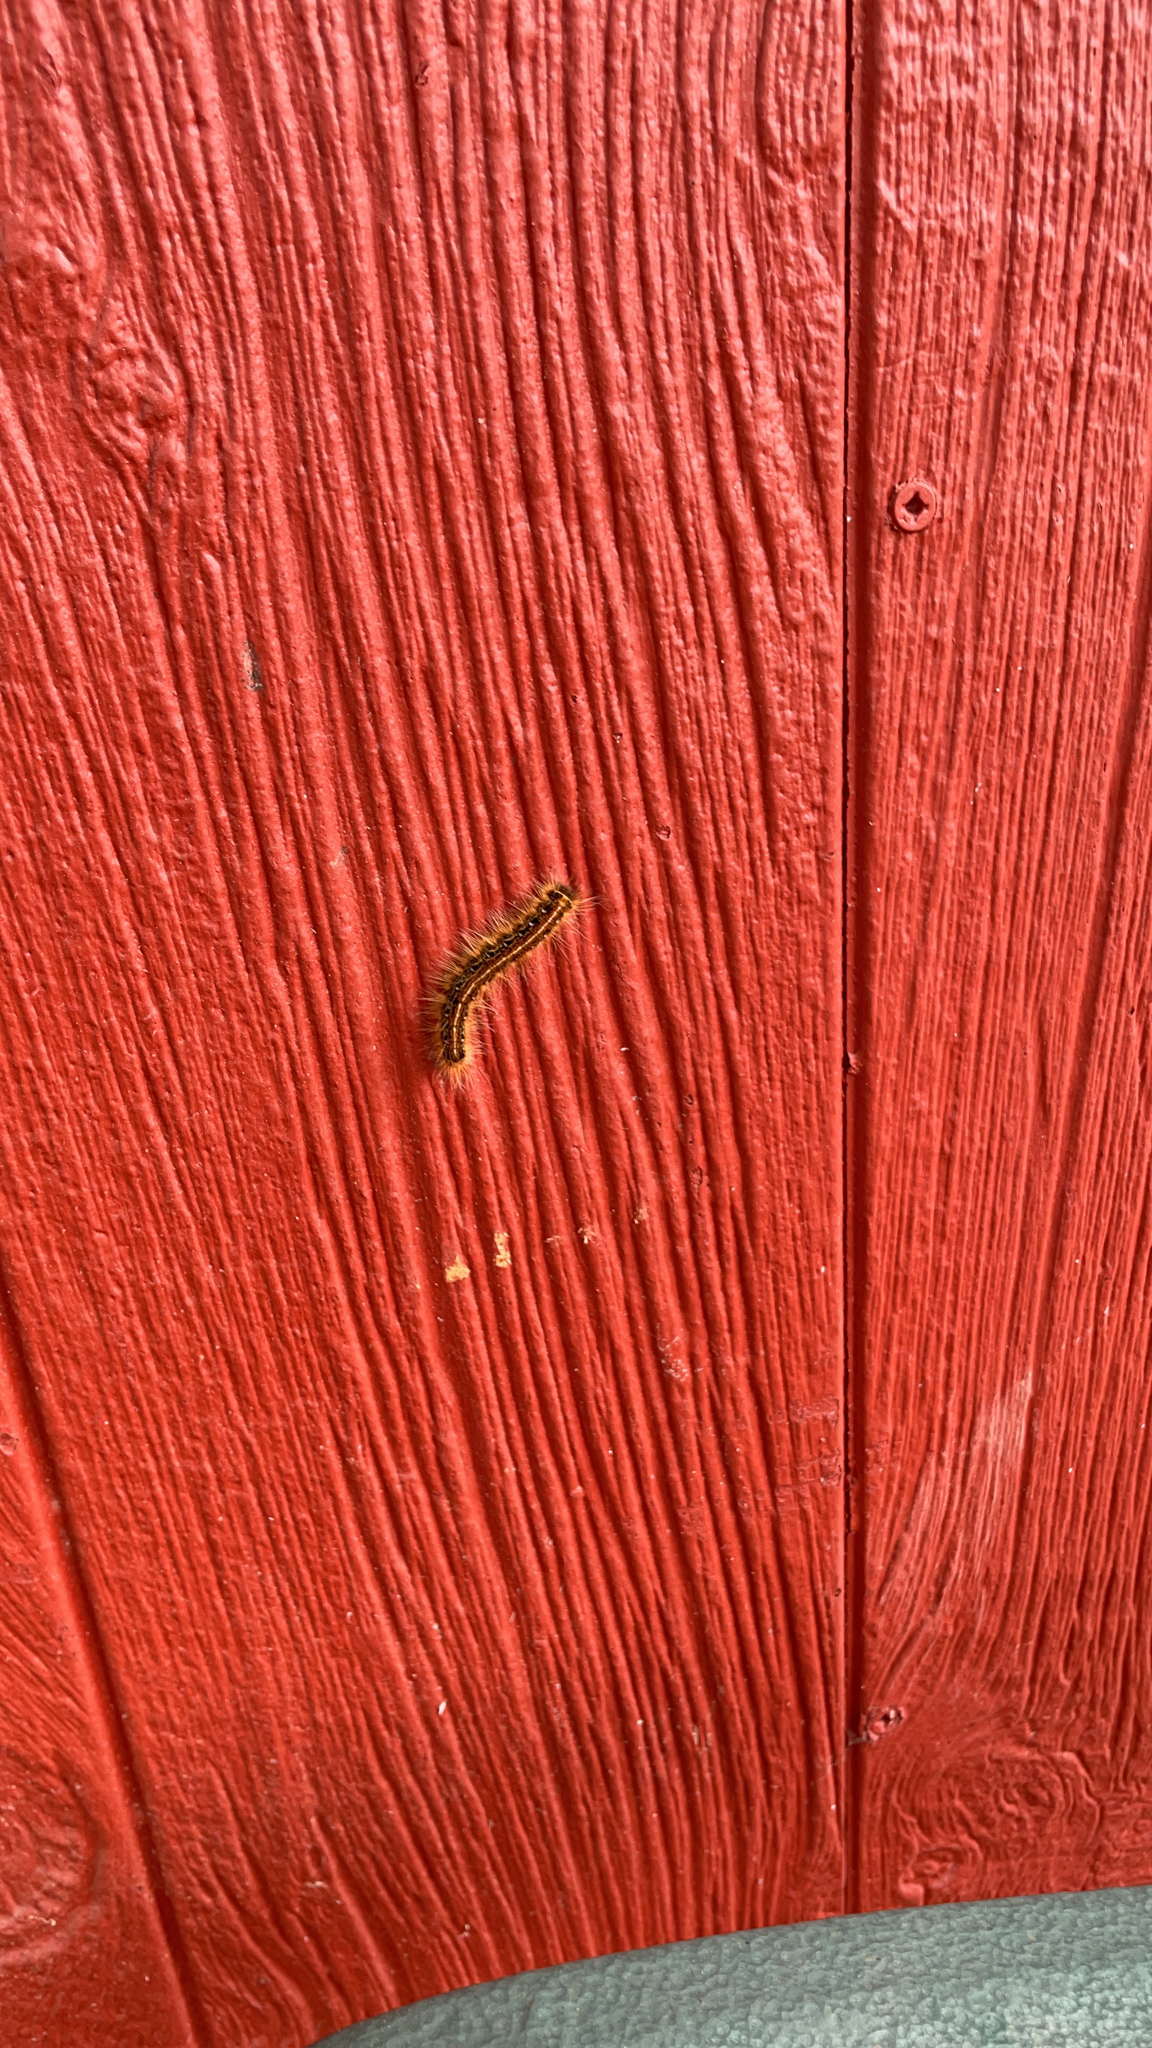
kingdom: Animalia
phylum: Arthropoda
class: Insecta
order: Lepidoptera
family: Lasiocampidae
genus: Malacosoma
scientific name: Malacosoma americana
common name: Eastern tent caterpillar moth
